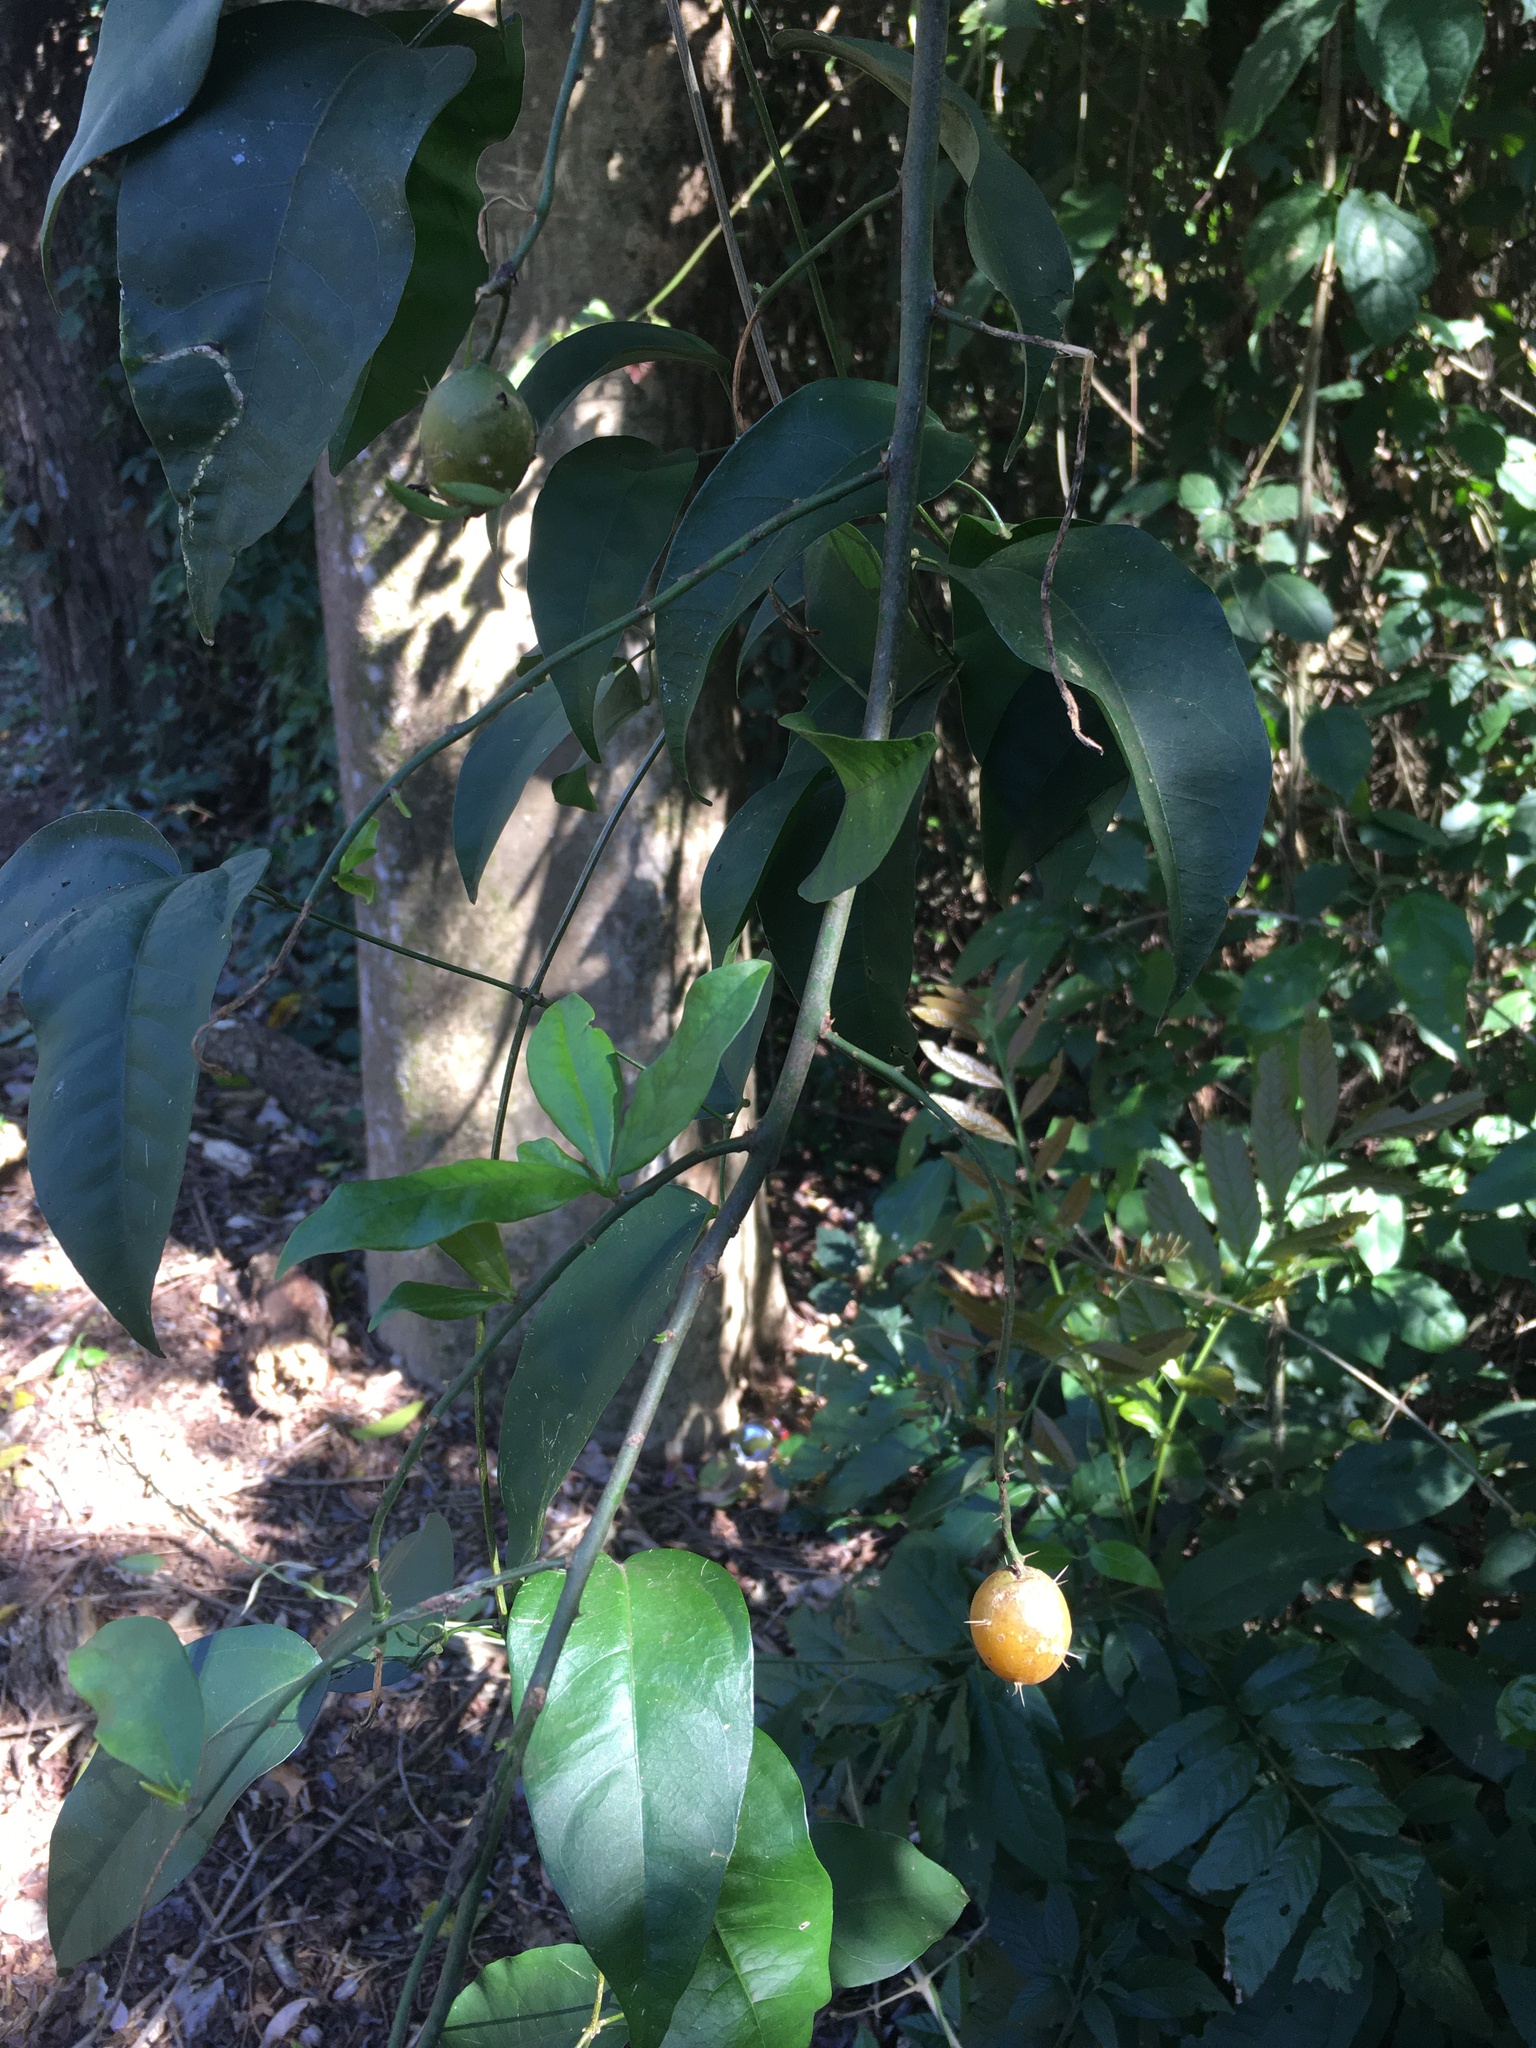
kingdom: Plantae
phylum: Tracheophyta
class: Magnoliopsida
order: Caryophyllales
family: Cactaceae
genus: Pereskia
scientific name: Pereskia aculeata
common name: Barbados gooseberry
